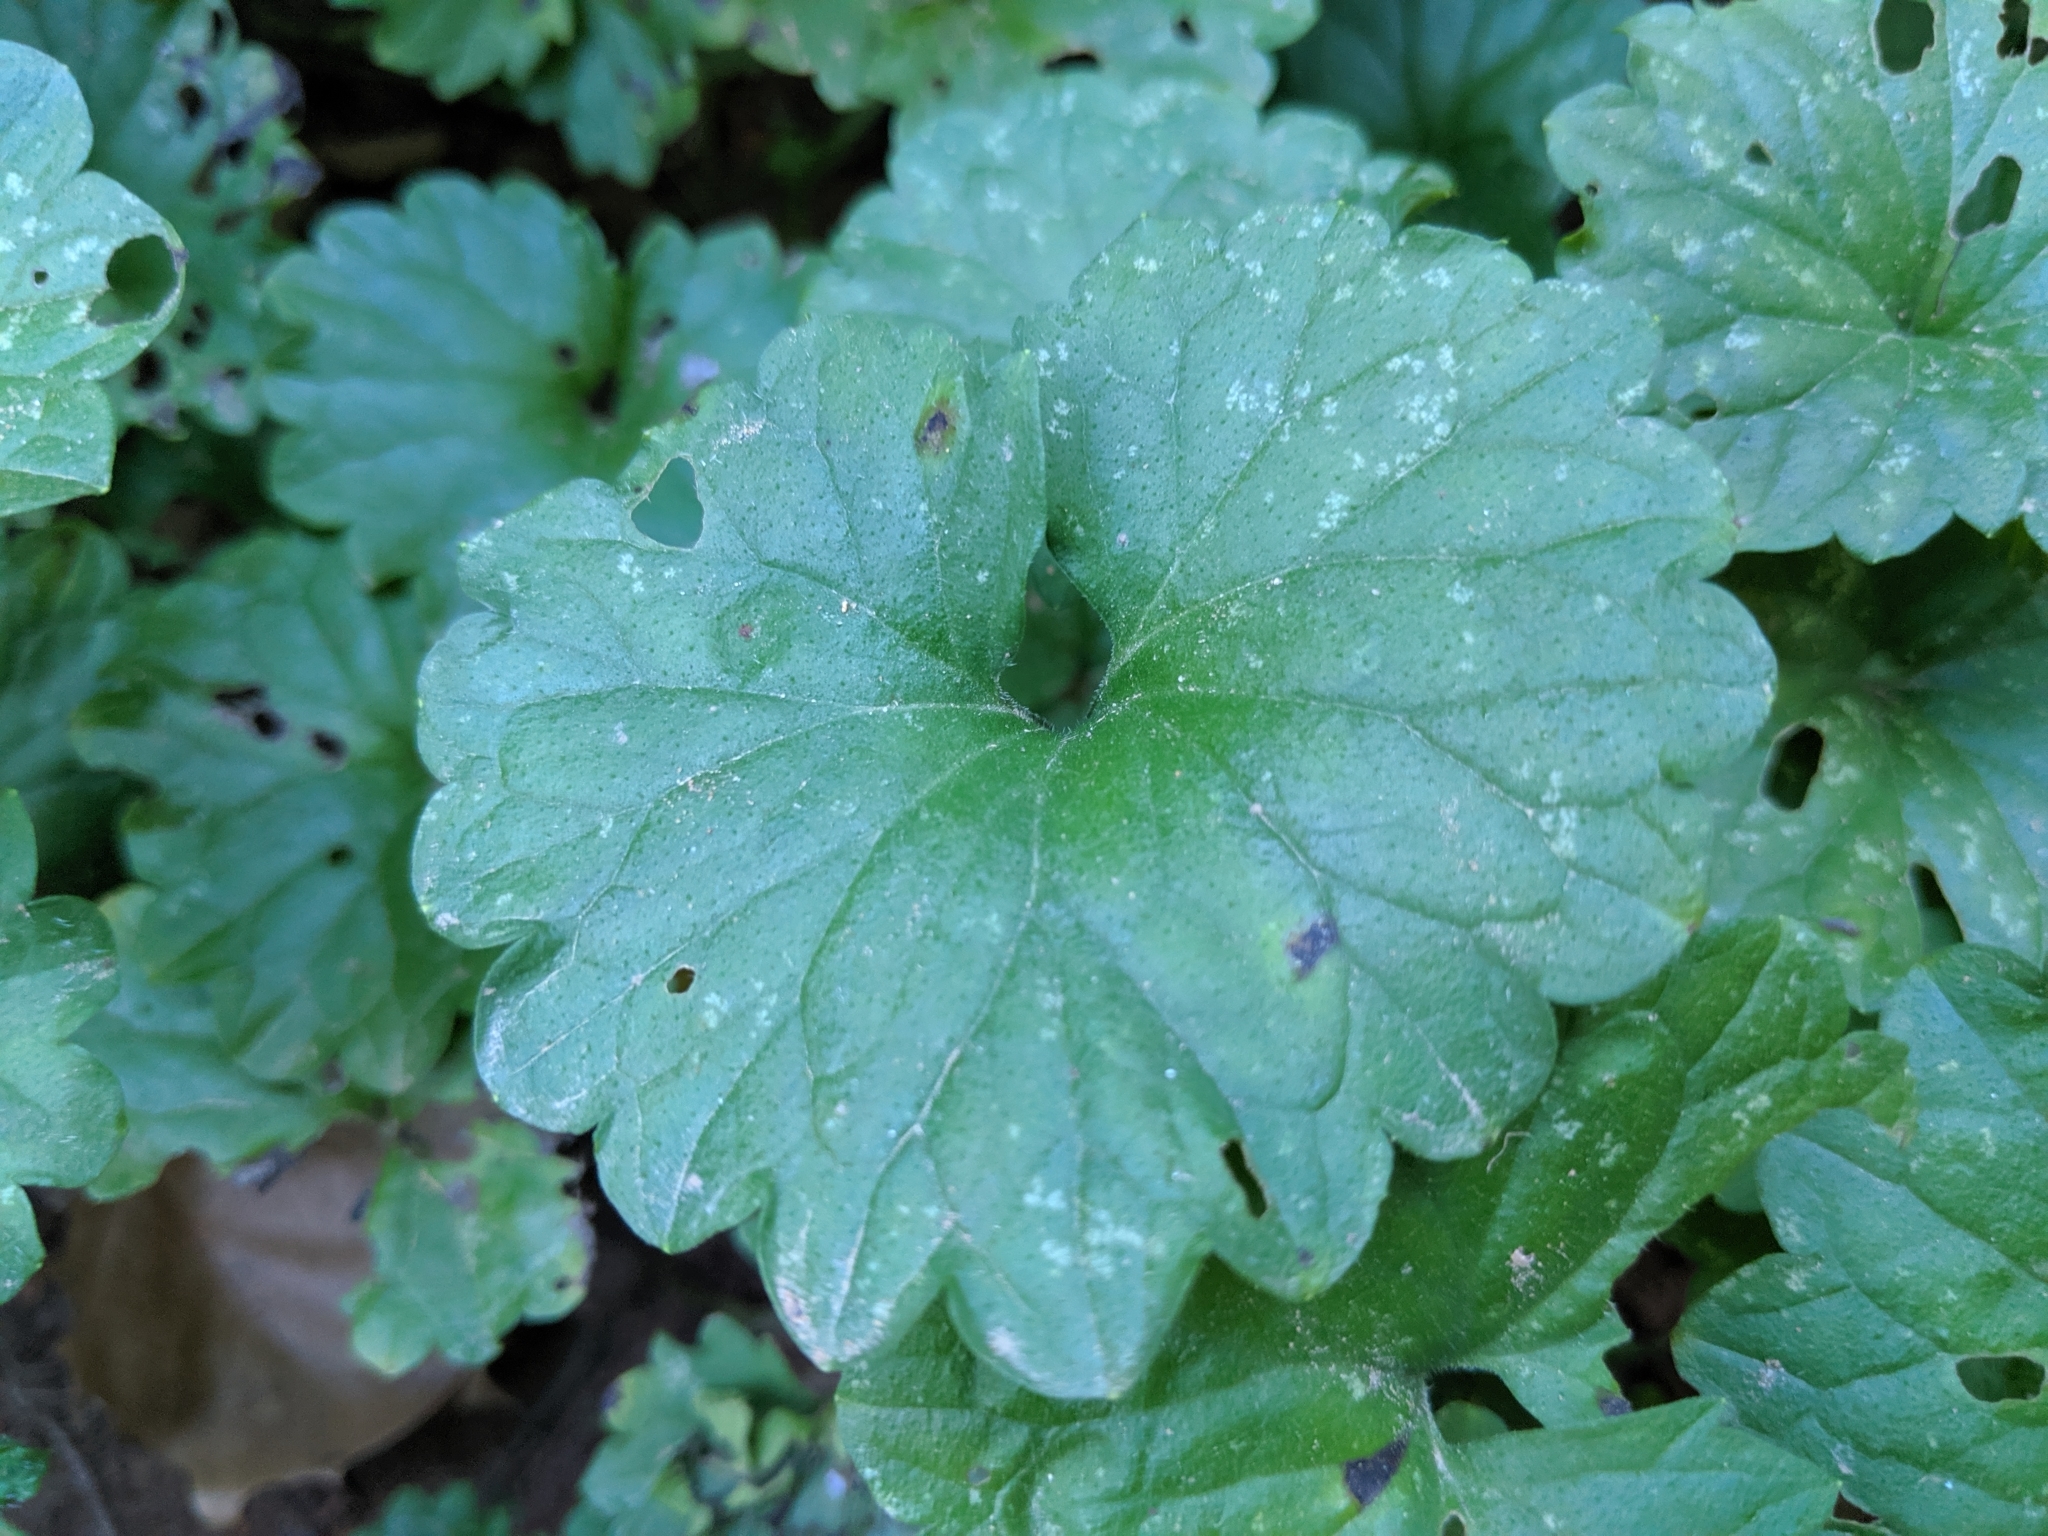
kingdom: Plantae
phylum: Tracheophyta
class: Magnoliopsida
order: Lamiales
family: Lamiaceae
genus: Glechoma
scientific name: Glechoma hederacea
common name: Ground ivy
